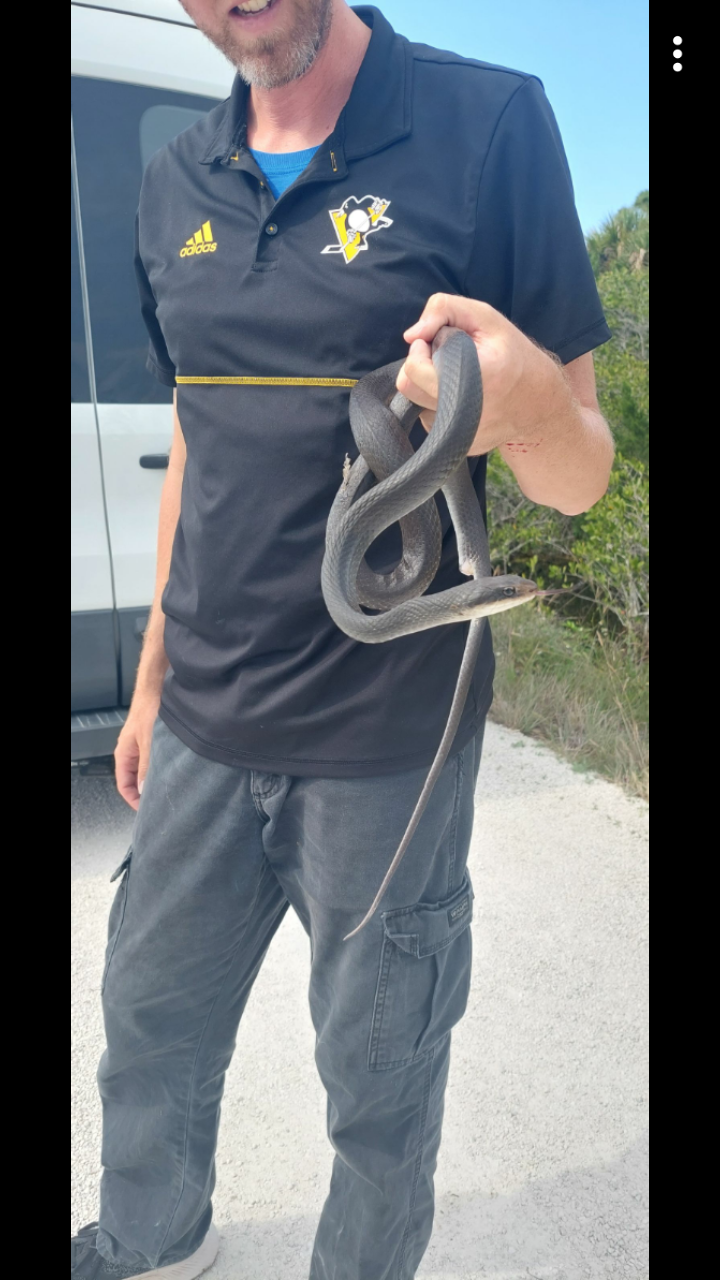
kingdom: Animalia
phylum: Chordata
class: Squamata
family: Colubridae
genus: Coluber
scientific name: Coluber constrictor
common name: Eastern racer
